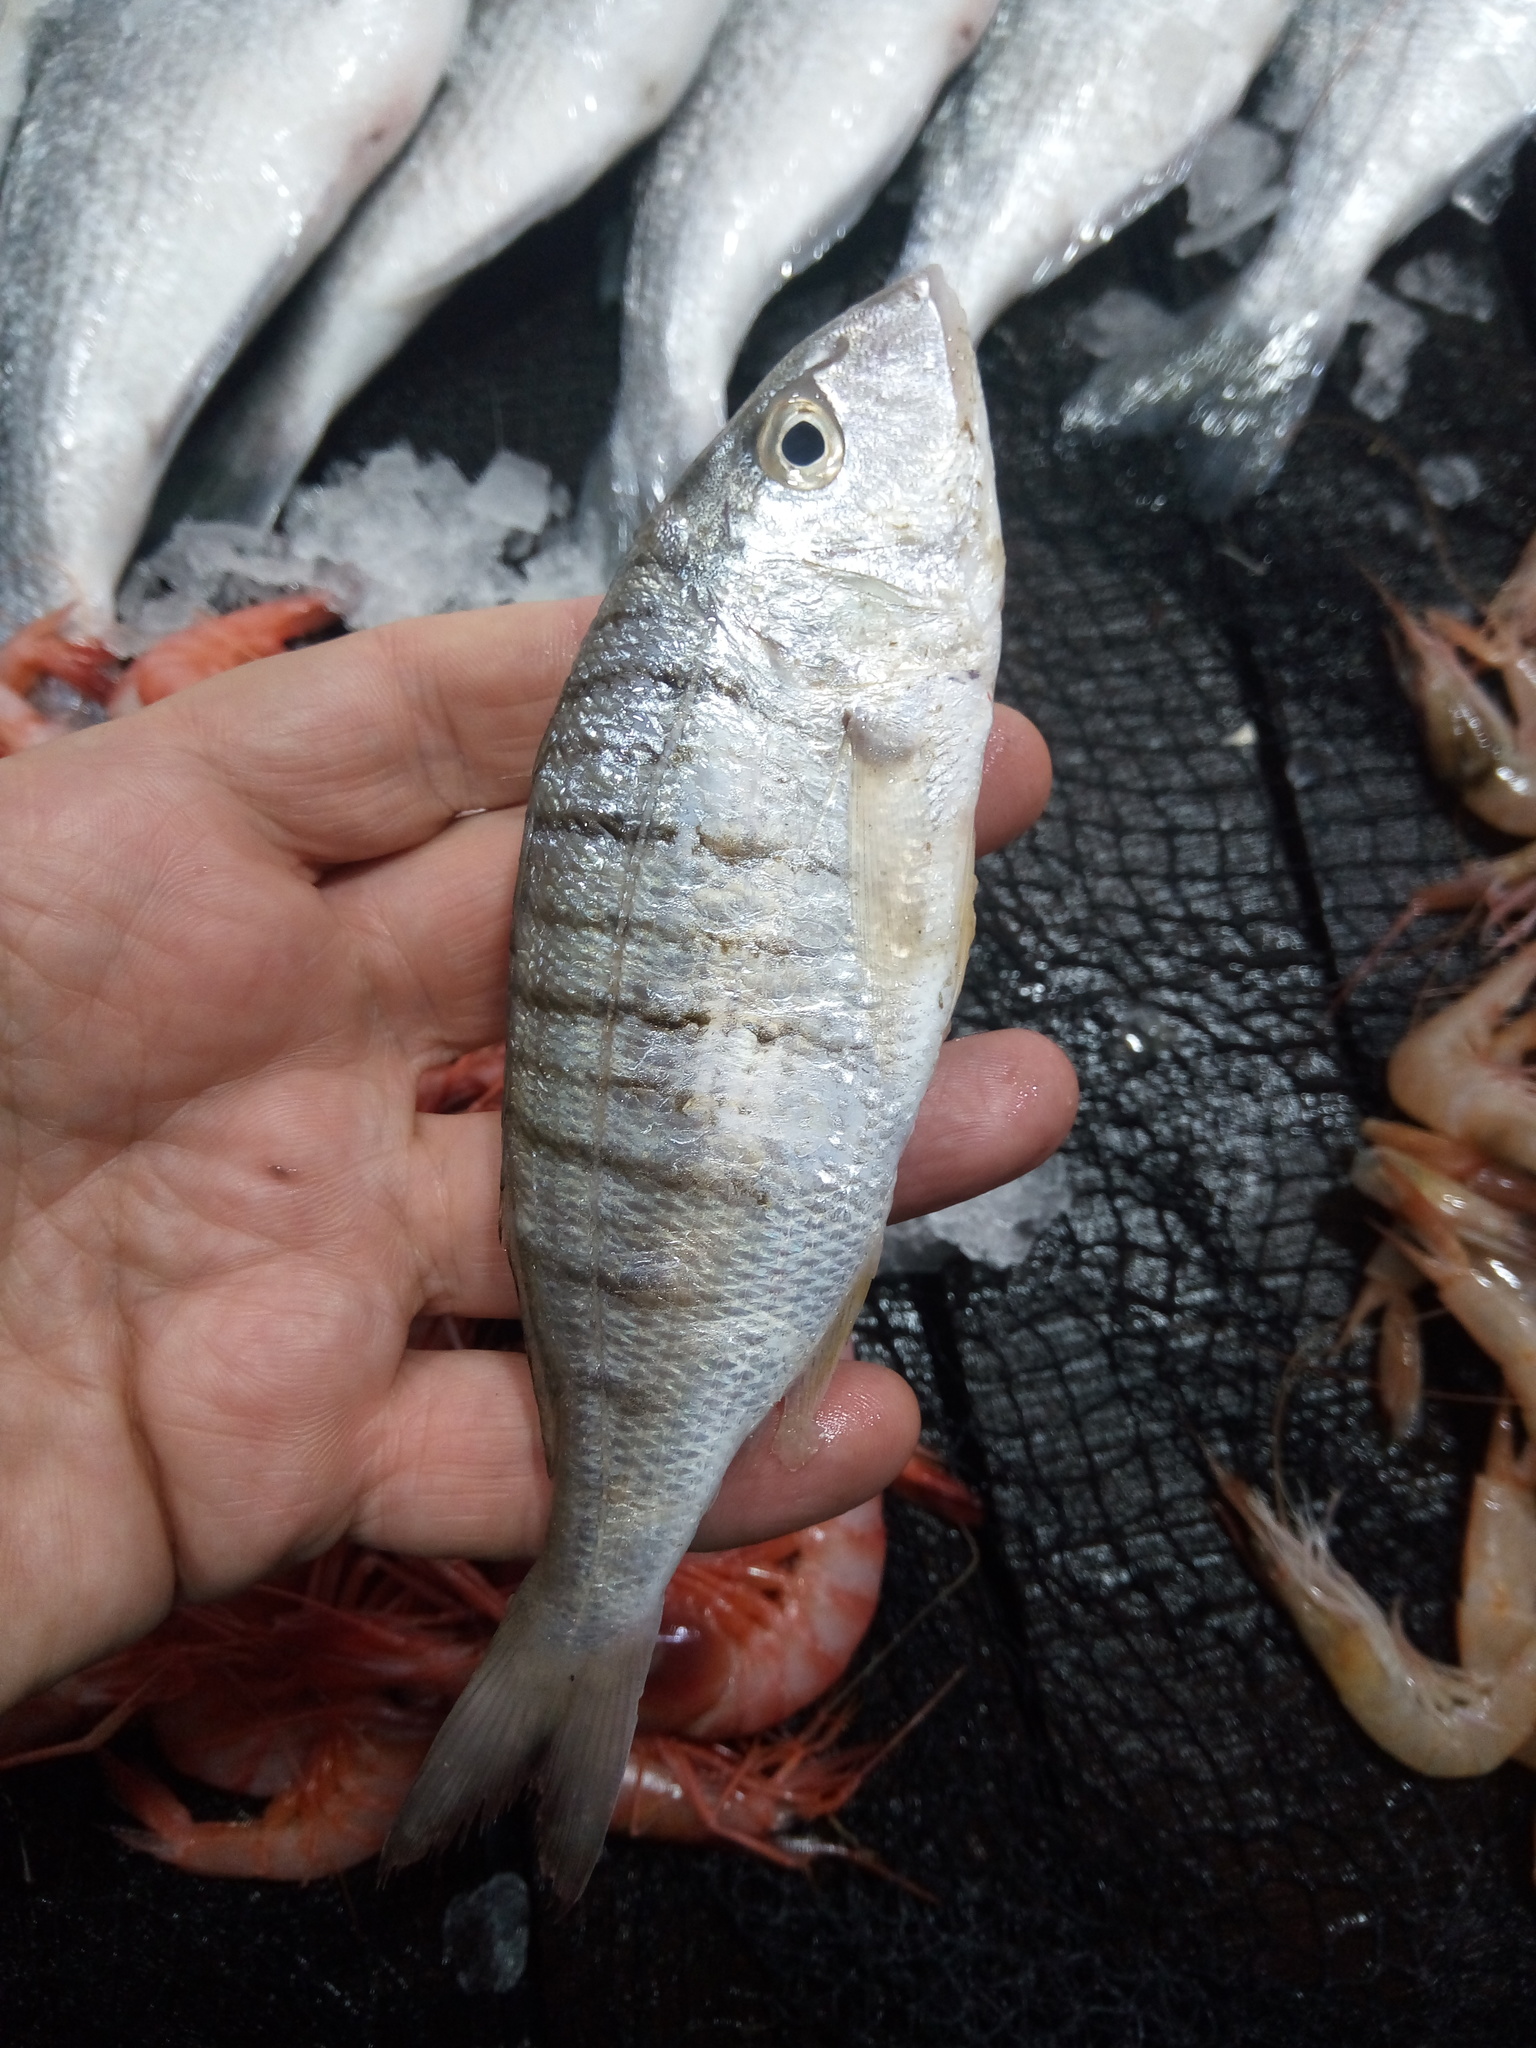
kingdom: Animalia
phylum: Chordata
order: Perciformes
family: Sparidae
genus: Lithognathus
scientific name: Lithognathus mormyrus
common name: Sand steenbras
